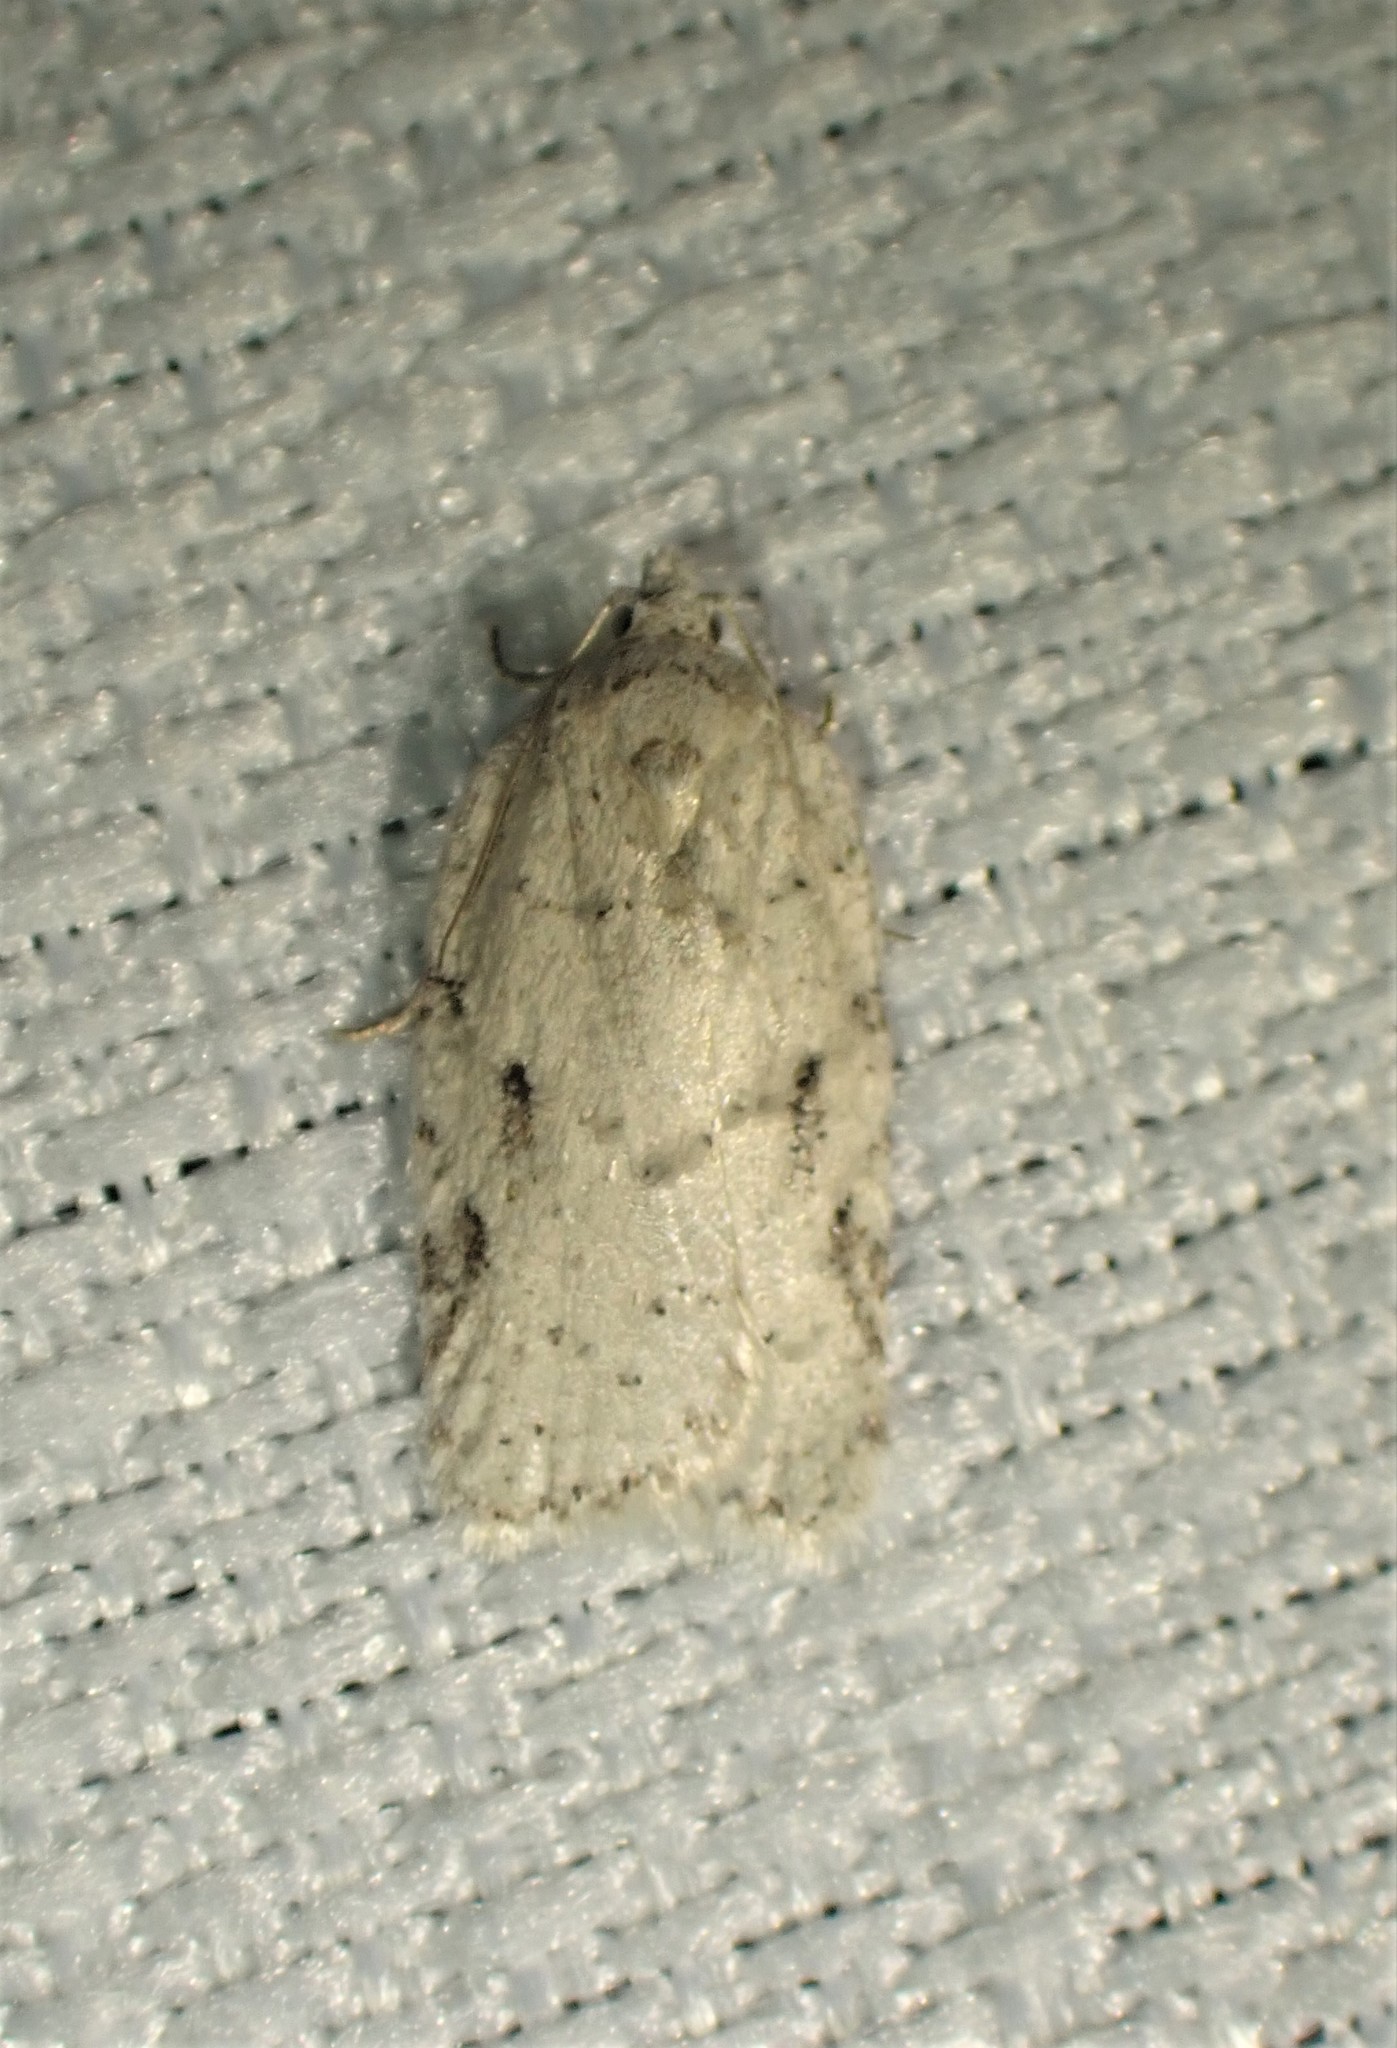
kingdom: Animalia
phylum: Arthropoda
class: Insecta
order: Lepidoptera
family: Tortricidae
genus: Acleris
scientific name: Acleris placidana
